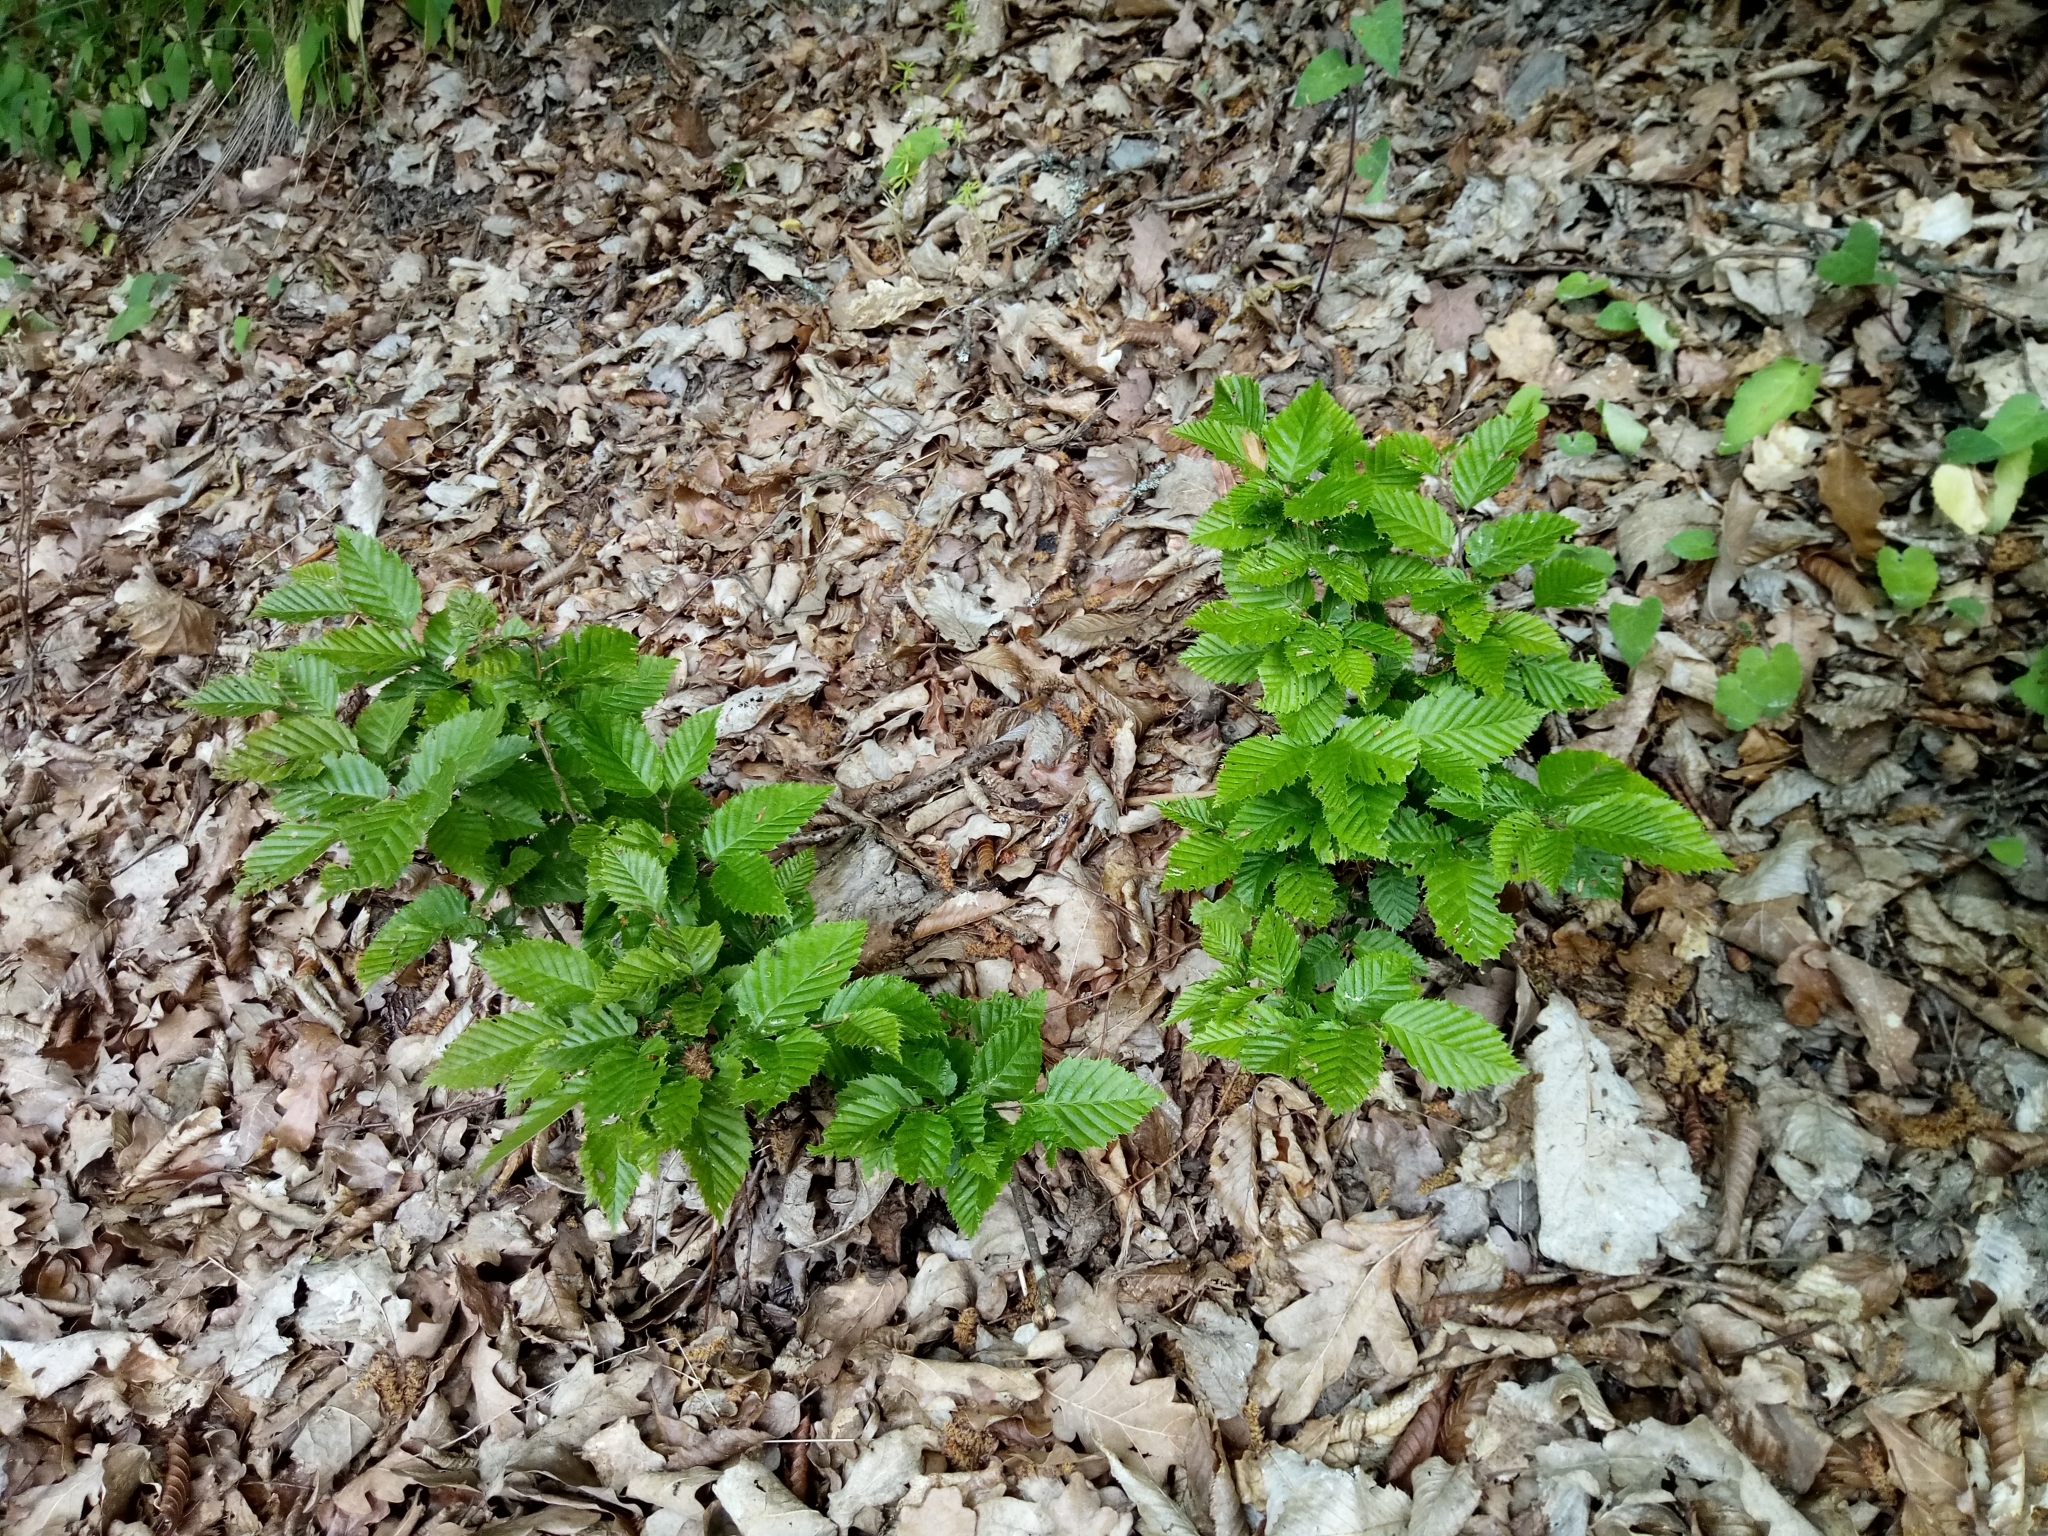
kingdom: Plantae
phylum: Tracheophyta
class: Magnoliopsida
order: Fagales
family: Betulaceae
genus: Carpinus
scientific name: Carpinus betulus
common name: Hornbeam
